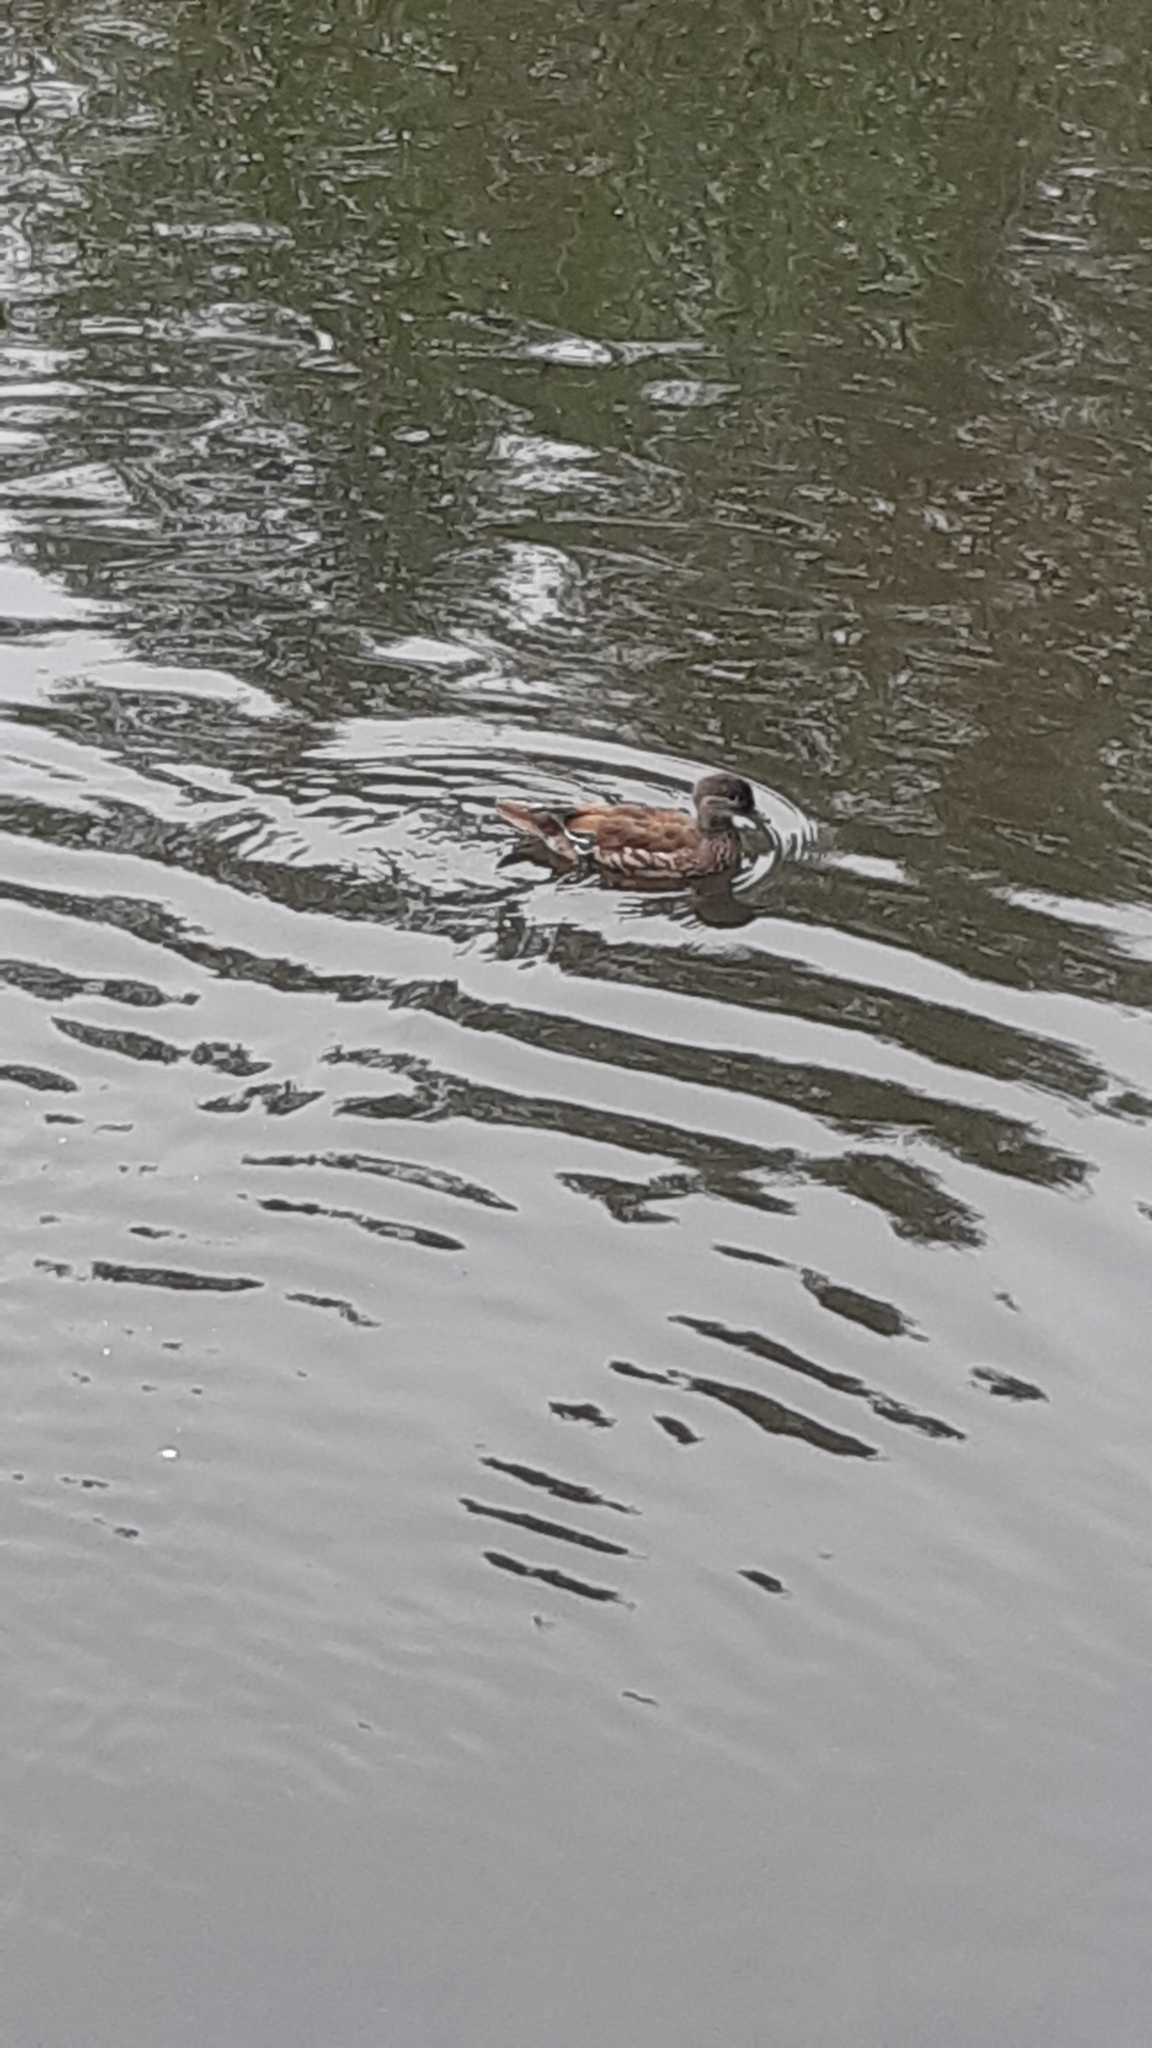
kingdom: Animalia
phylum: Chordata
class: Aves
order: Anseriformes
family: Anatidae
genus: Aix
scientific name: Aix galericulata
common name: Mandarin duck
